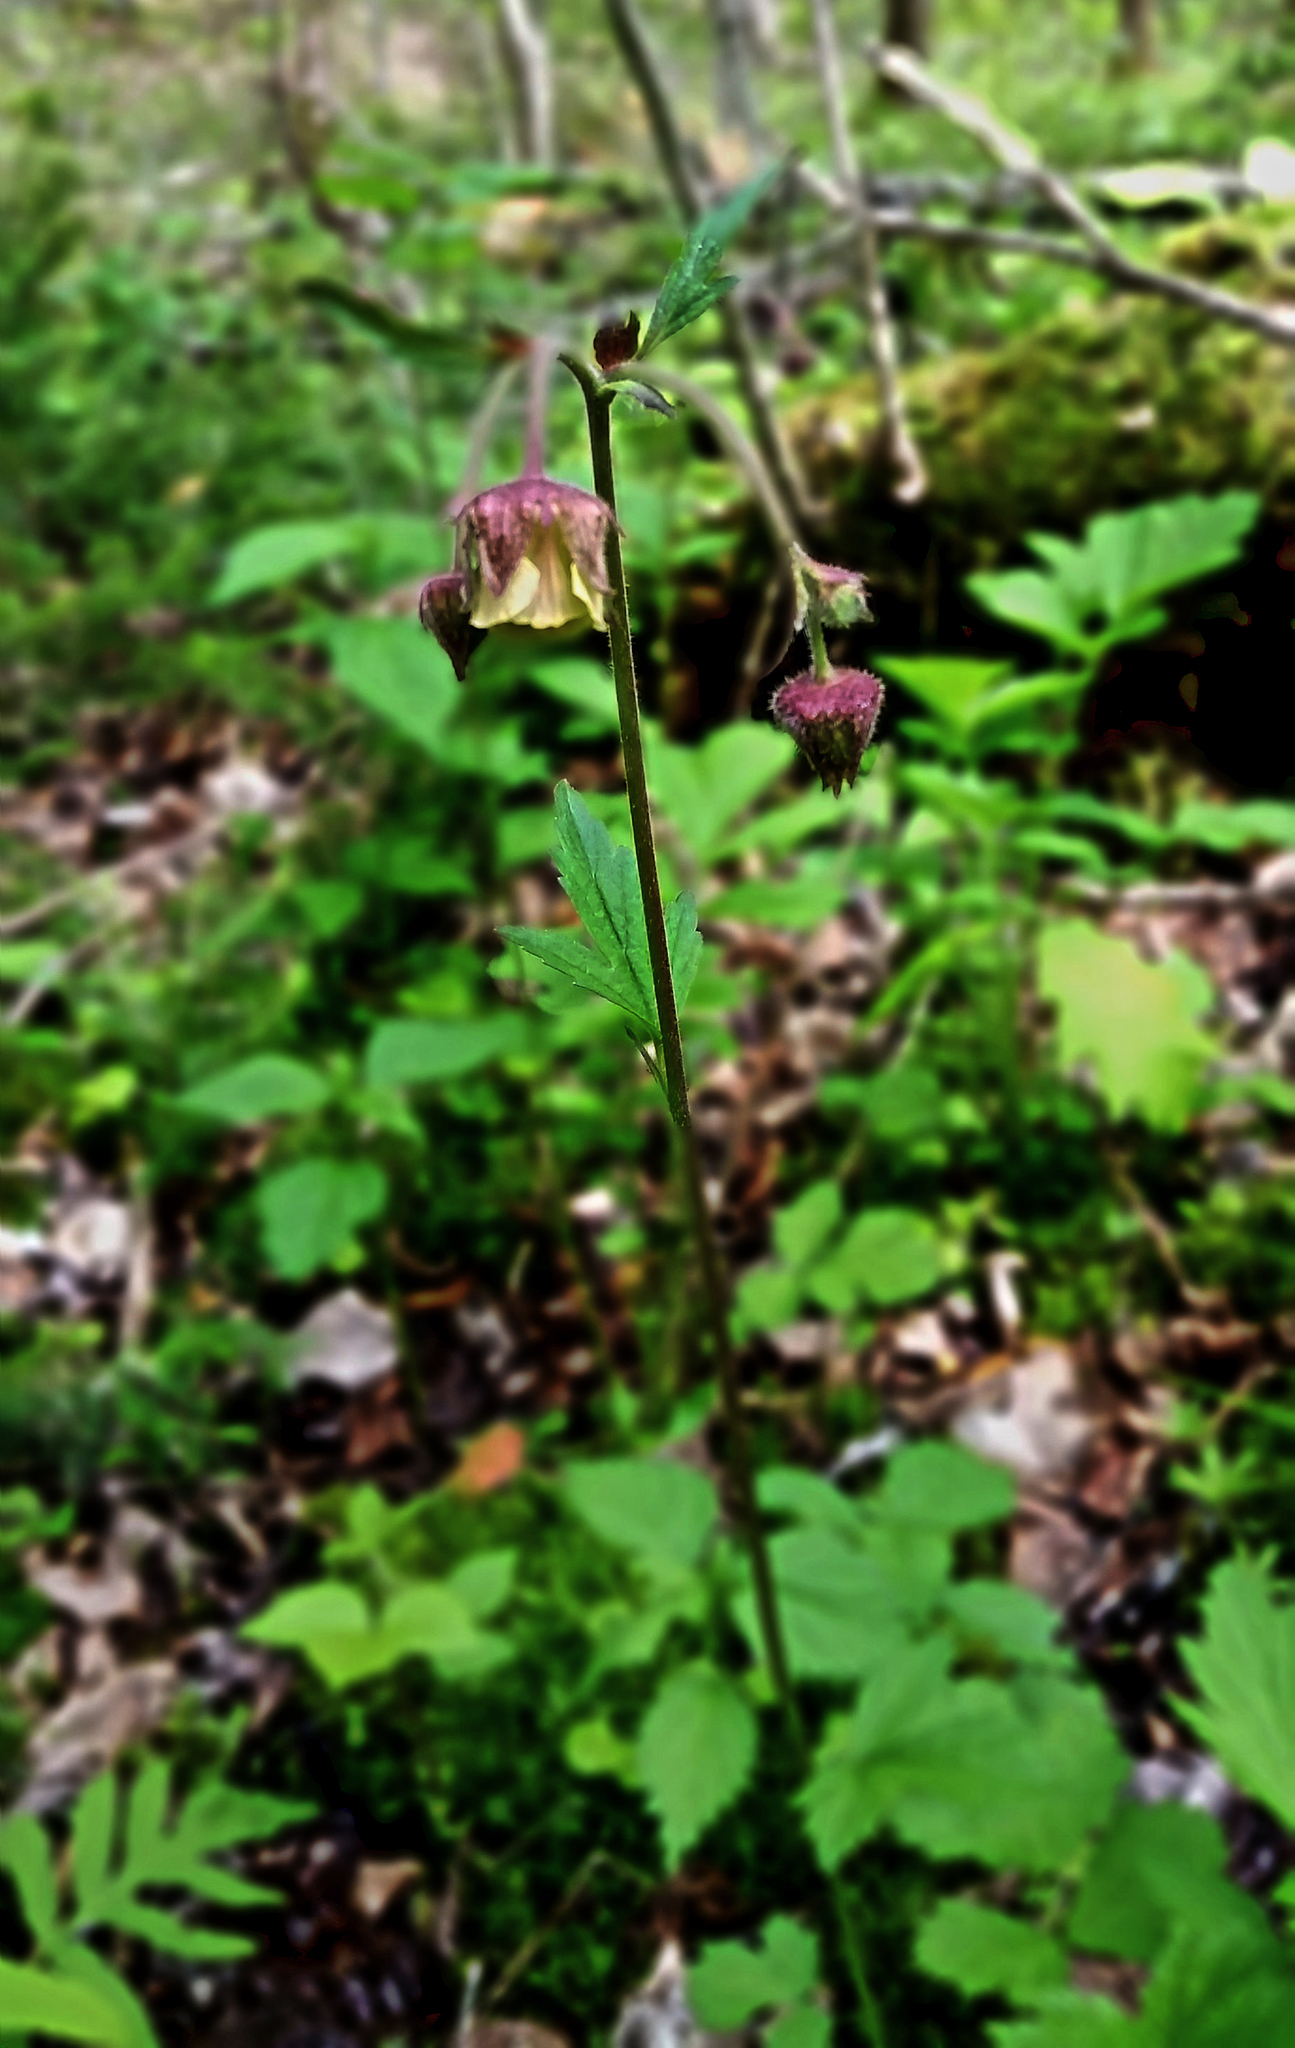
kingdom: Plantae
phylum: Tracheophyta
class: Magnoliopsida
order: Rosales
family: Rosaceae
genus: Geum
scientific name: Geum rivale
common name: Water avens
